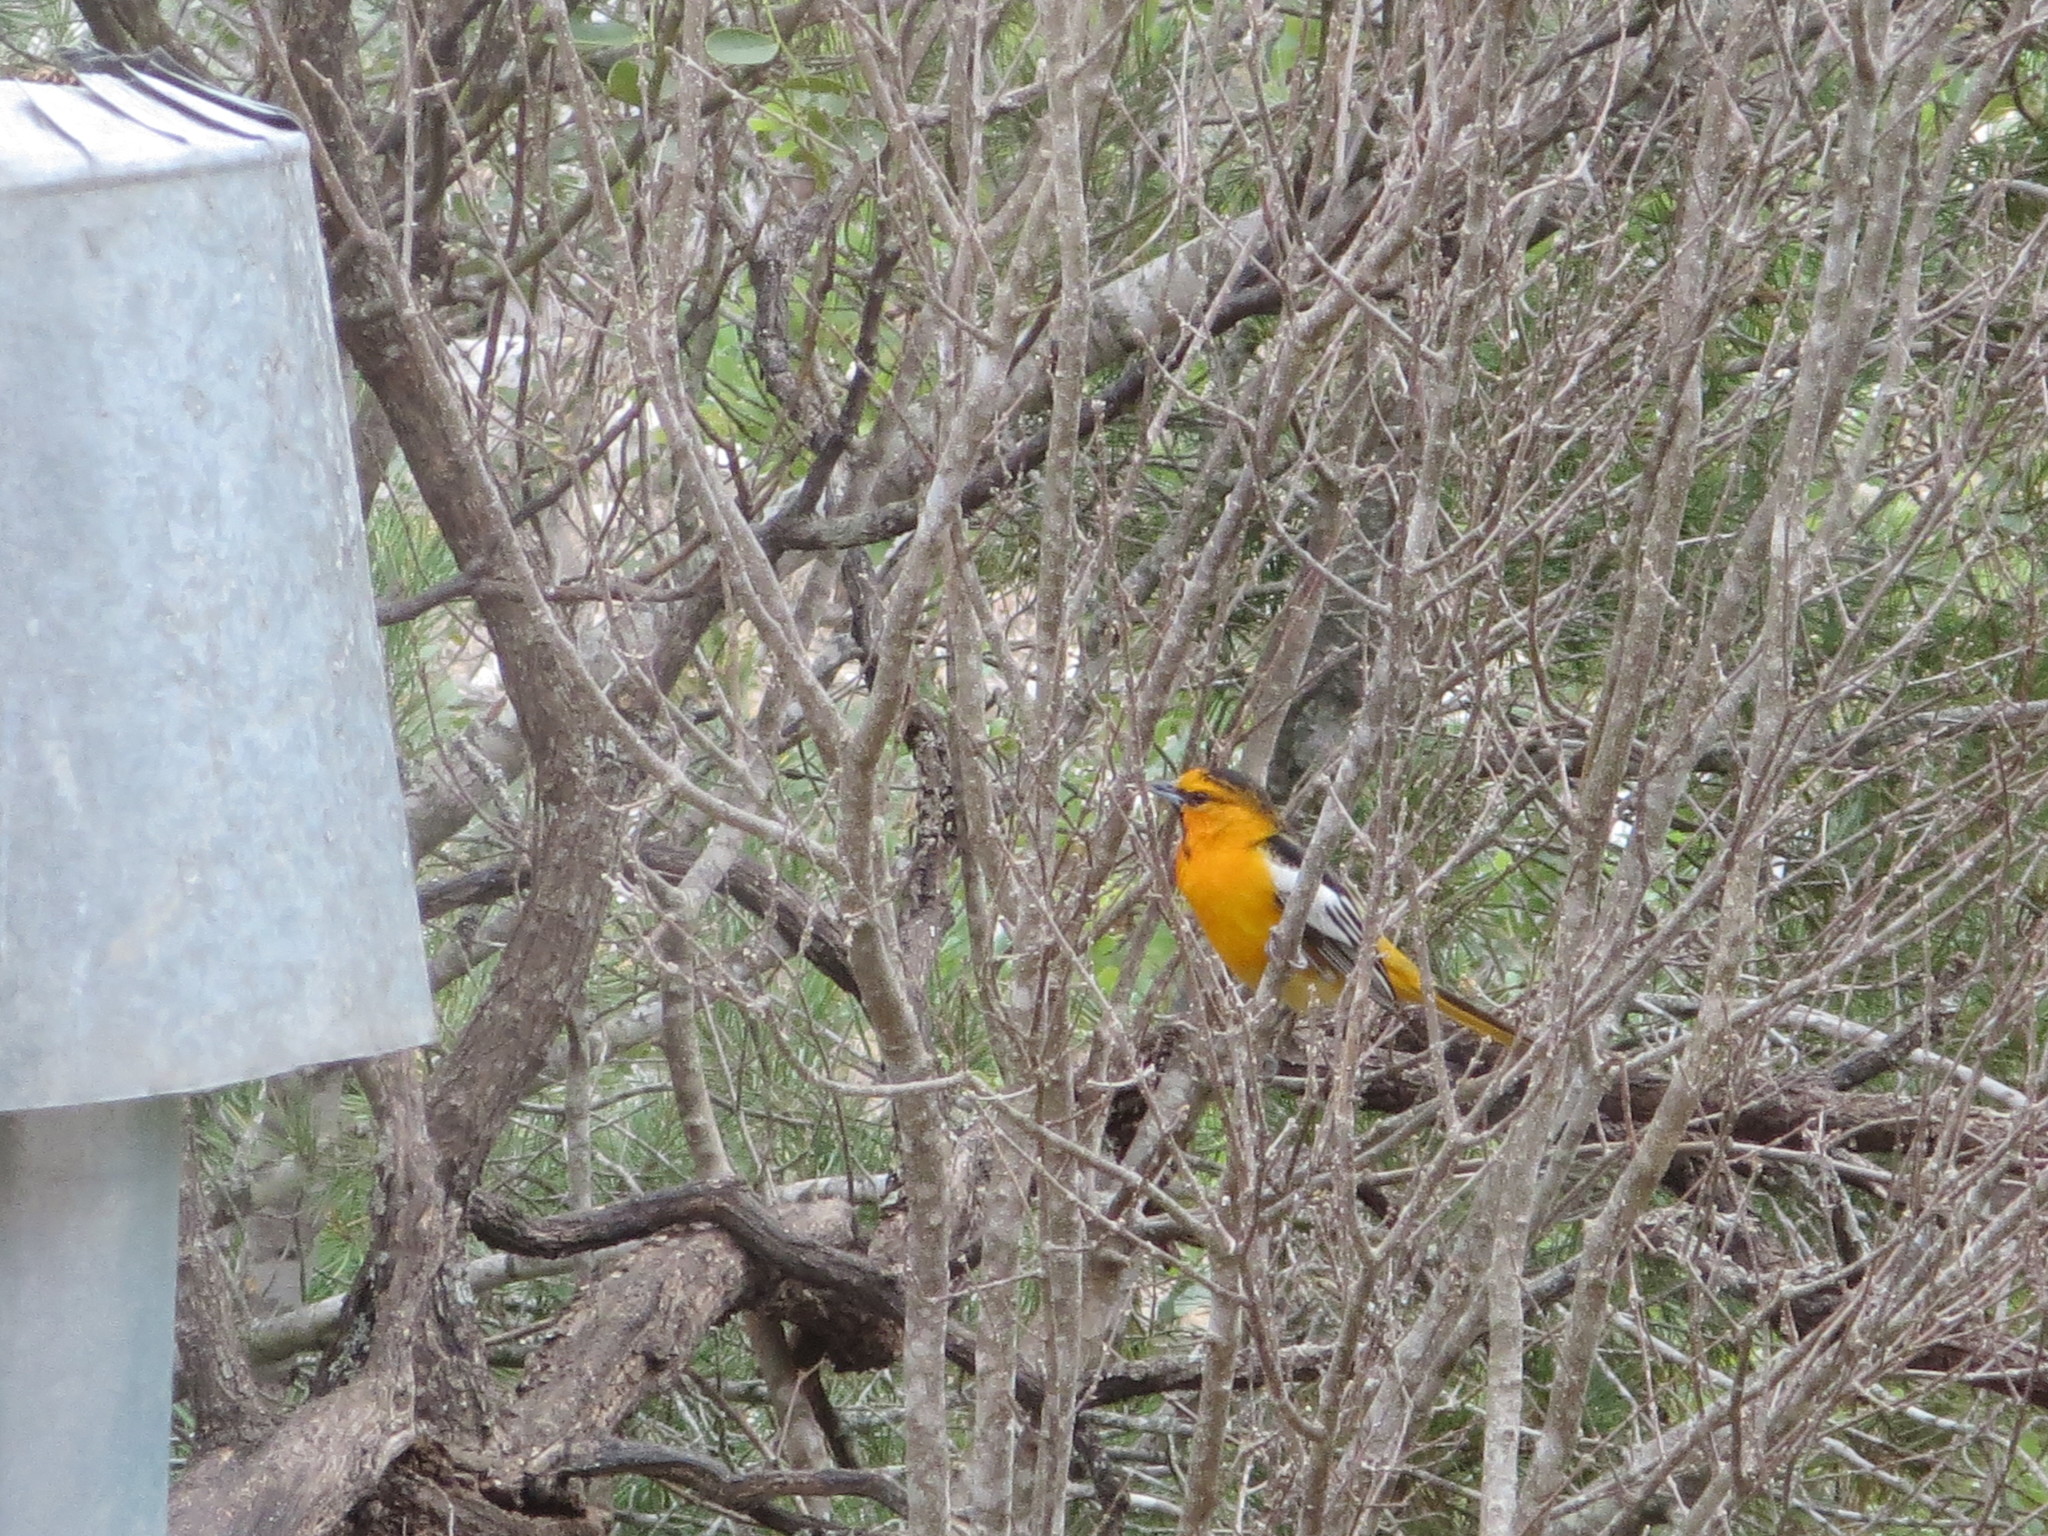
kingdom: Animalia
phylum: Chordata
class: Aves
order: Passeriformes
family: Icteridae
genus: Icterus
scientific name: Icterus bullockii
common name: Bullock's oriole
